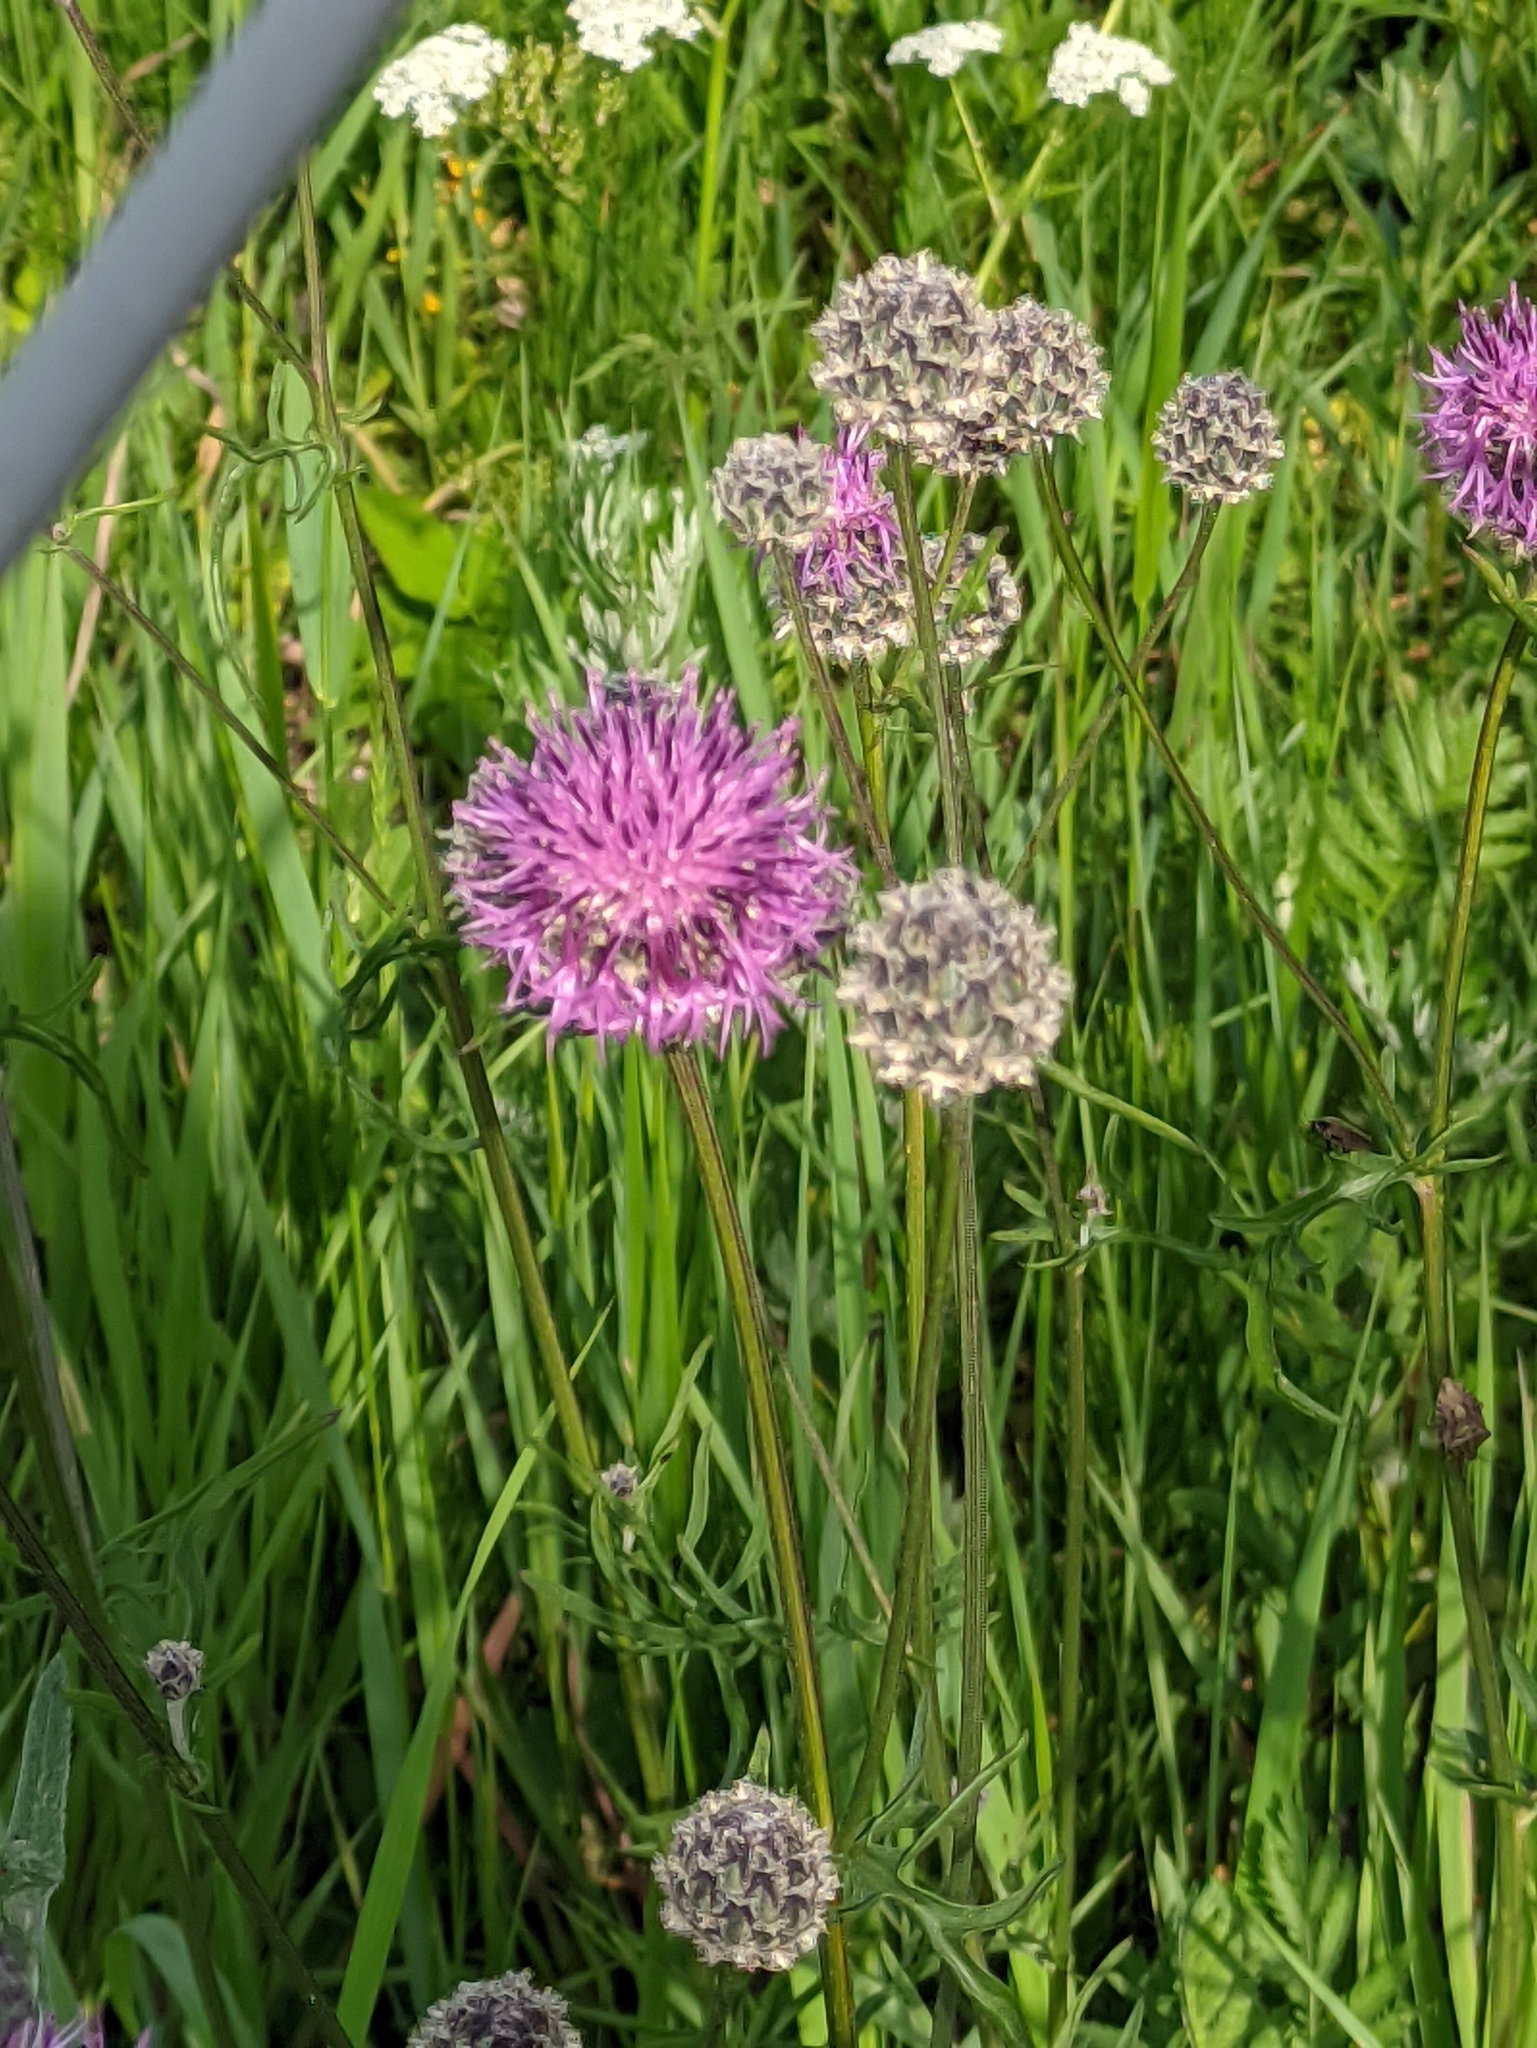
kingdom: Plantae
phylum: Tracheophyta
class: Magnoliopsida
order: Asterales
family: Asteraceae
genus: Centaurea
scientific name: Centaurea scabiosa
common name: Greater knapweed
